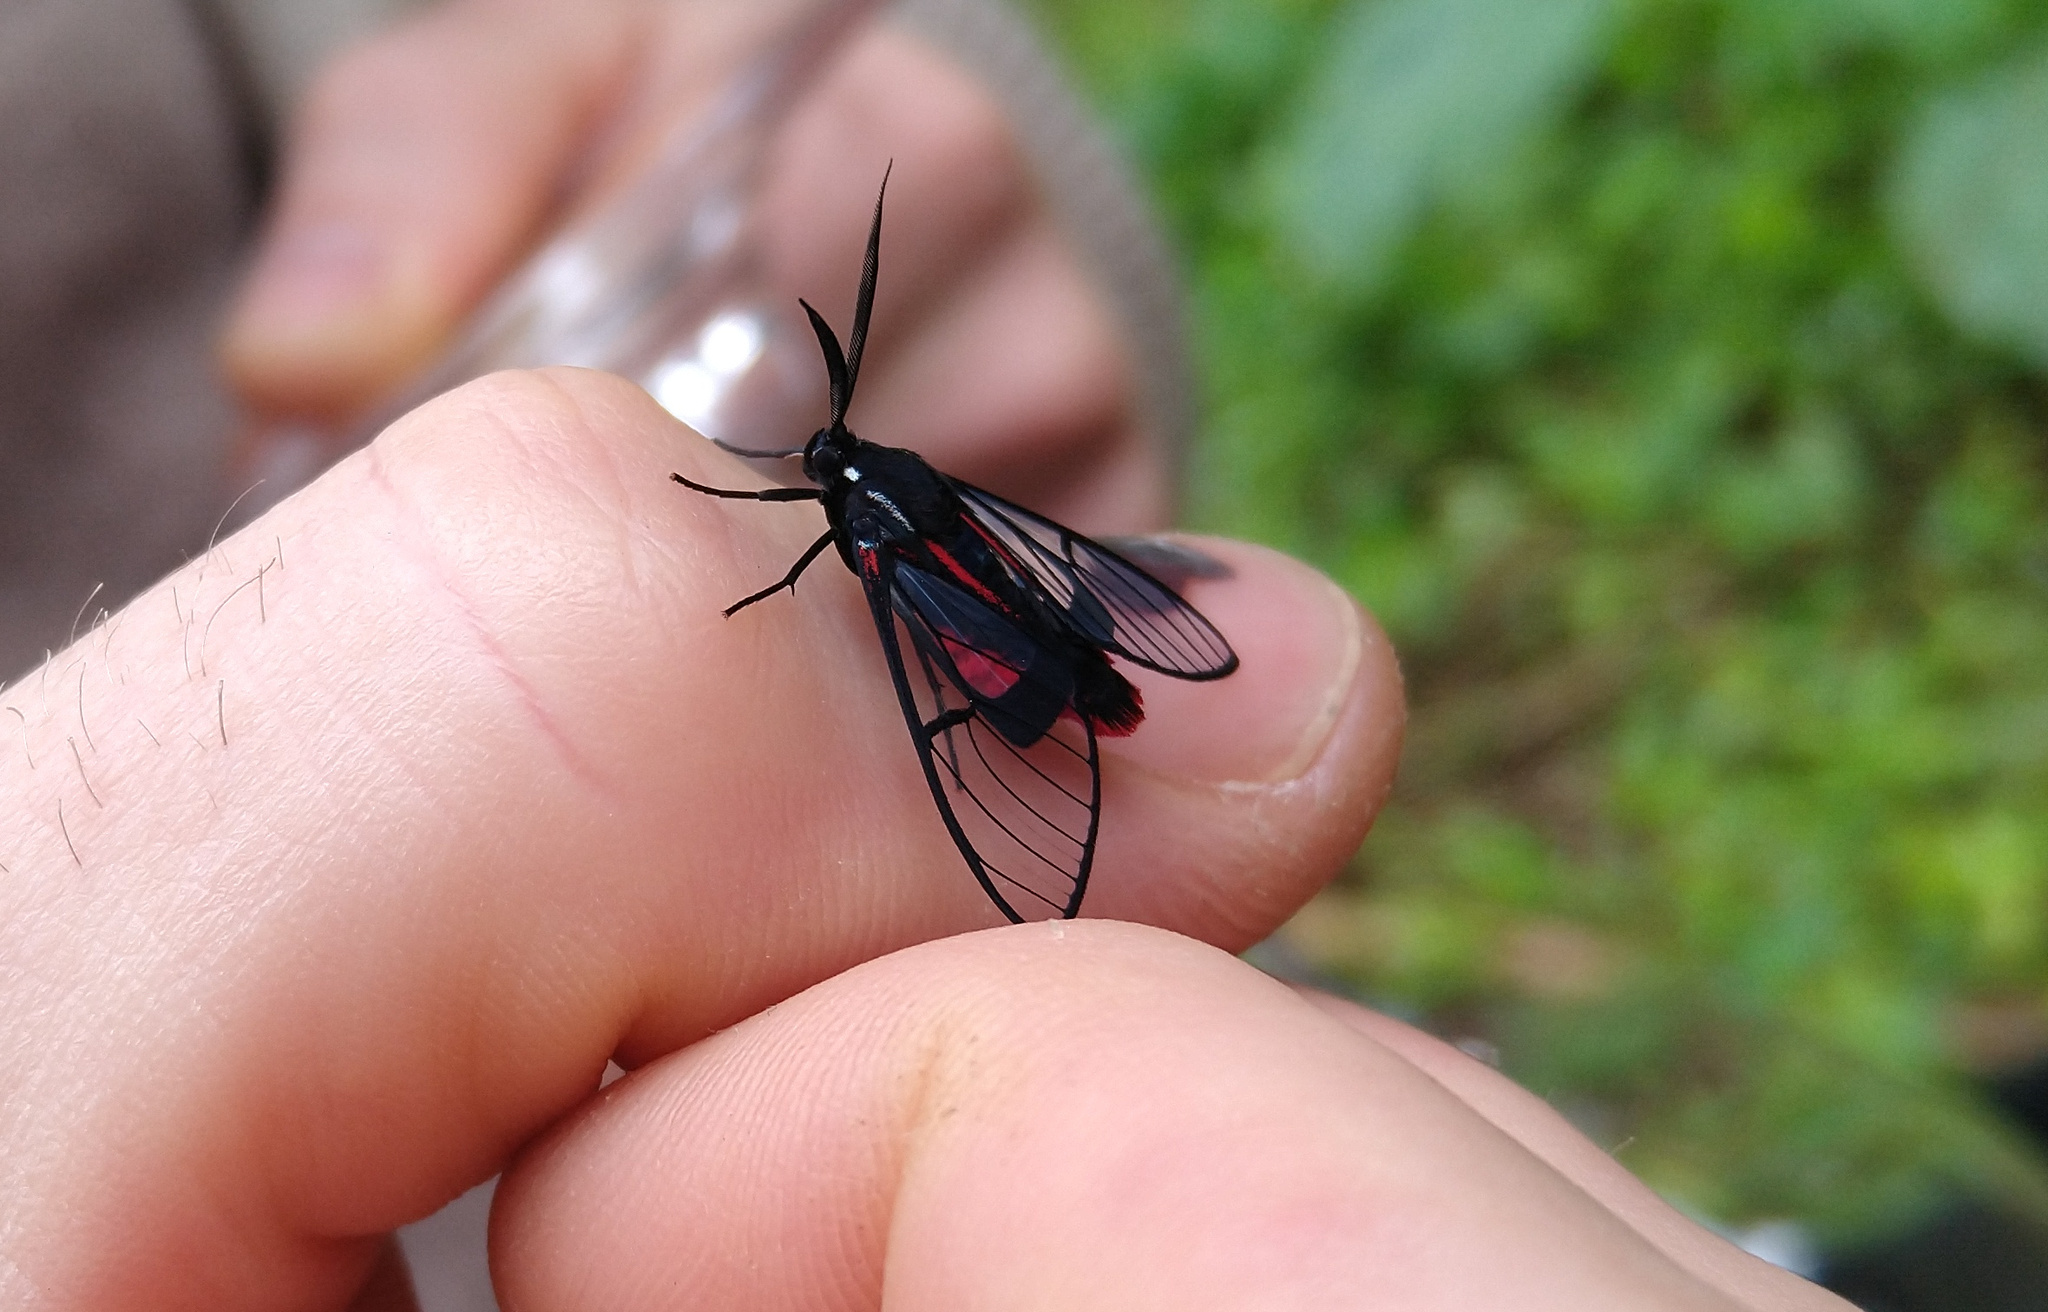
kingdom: Animalia
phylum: Arthropoda
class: Insecta
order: Lepidoptera
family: Erebidae
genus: Dinia
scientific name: Dinia eagrus
